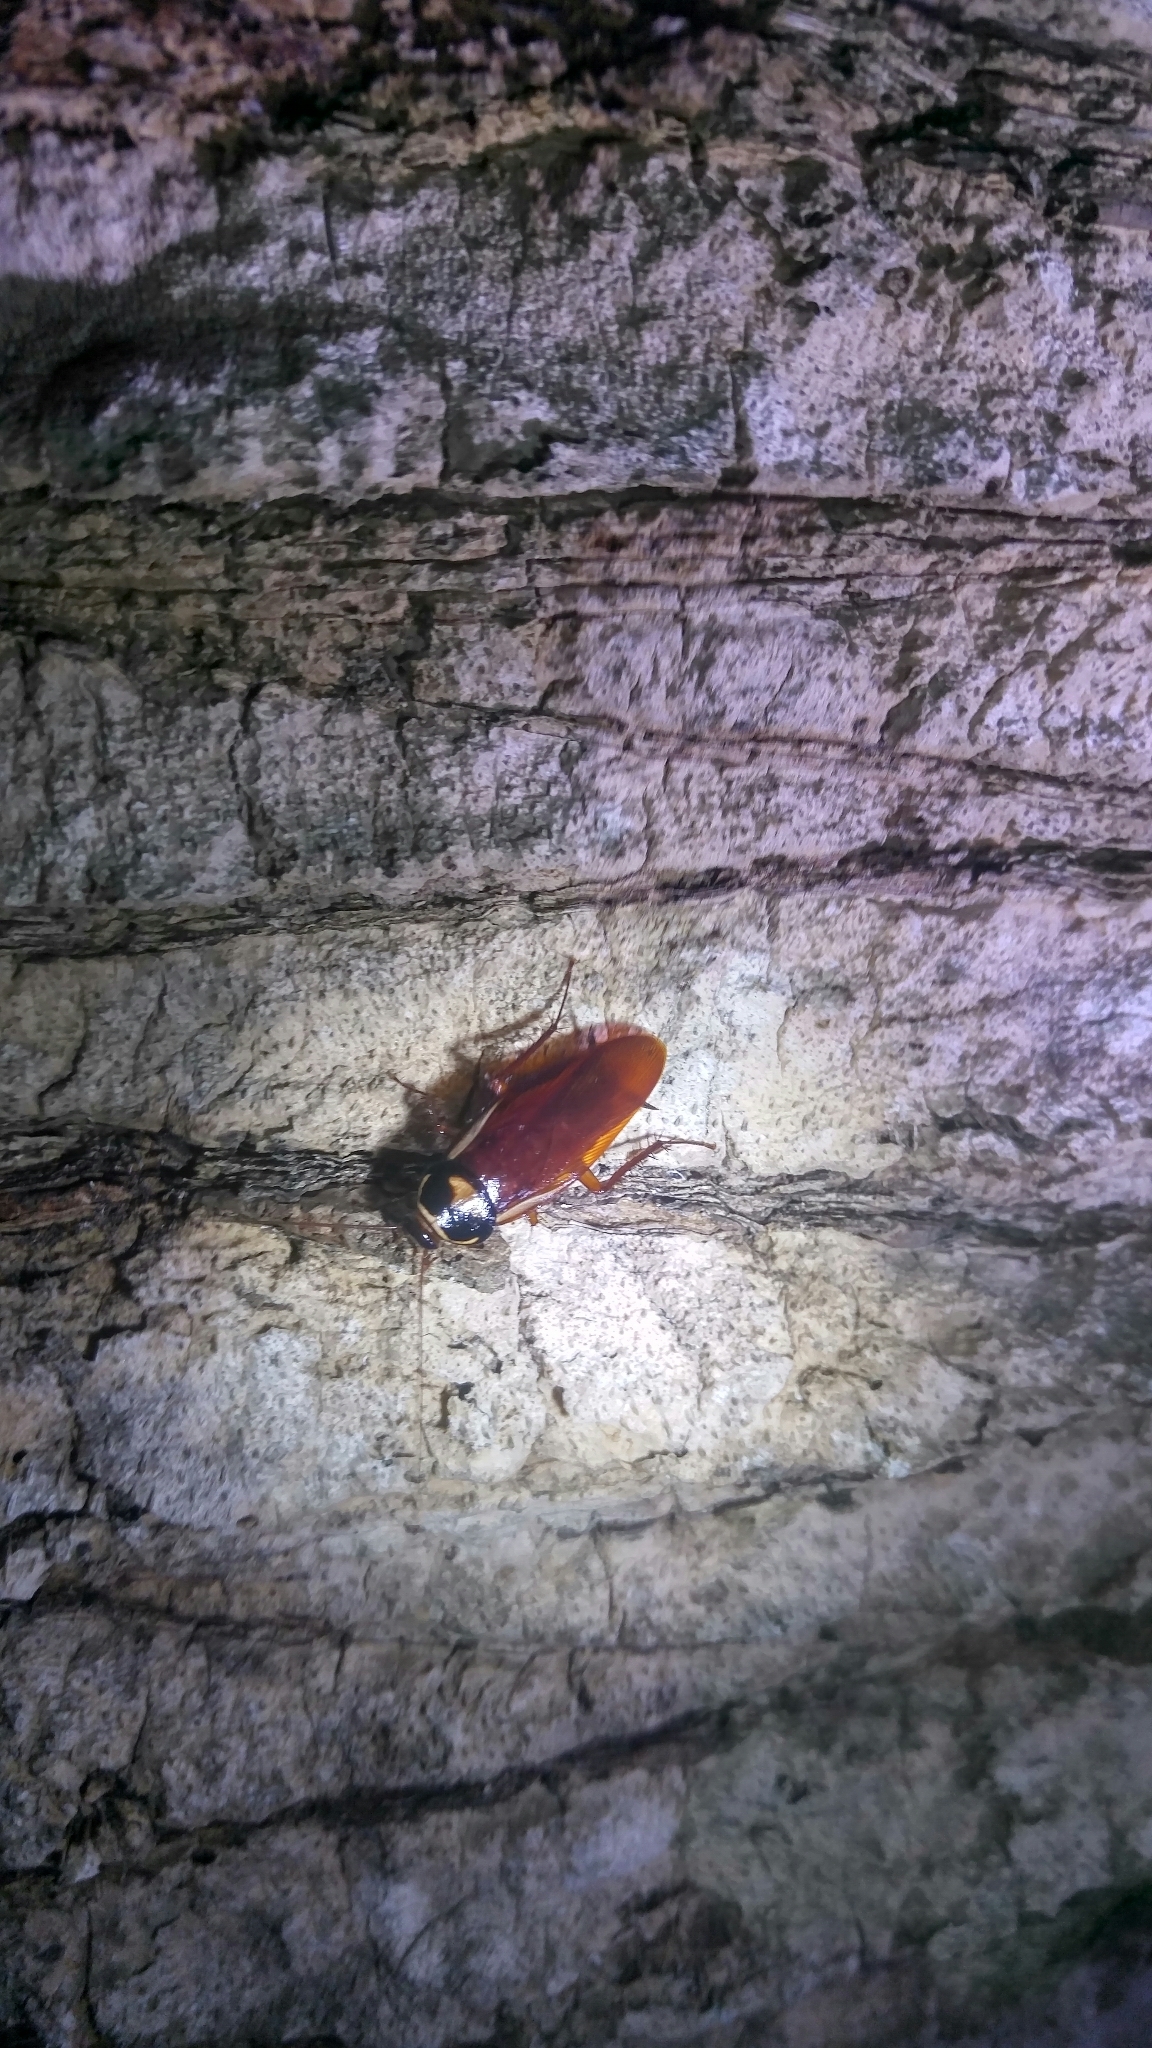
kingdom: Animalia
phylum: Arthropoda
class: Insecta
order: Blattodea
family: Blattidae
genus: Periplaneta
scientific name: Periplaneta australasiae
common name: Australian cockroach
